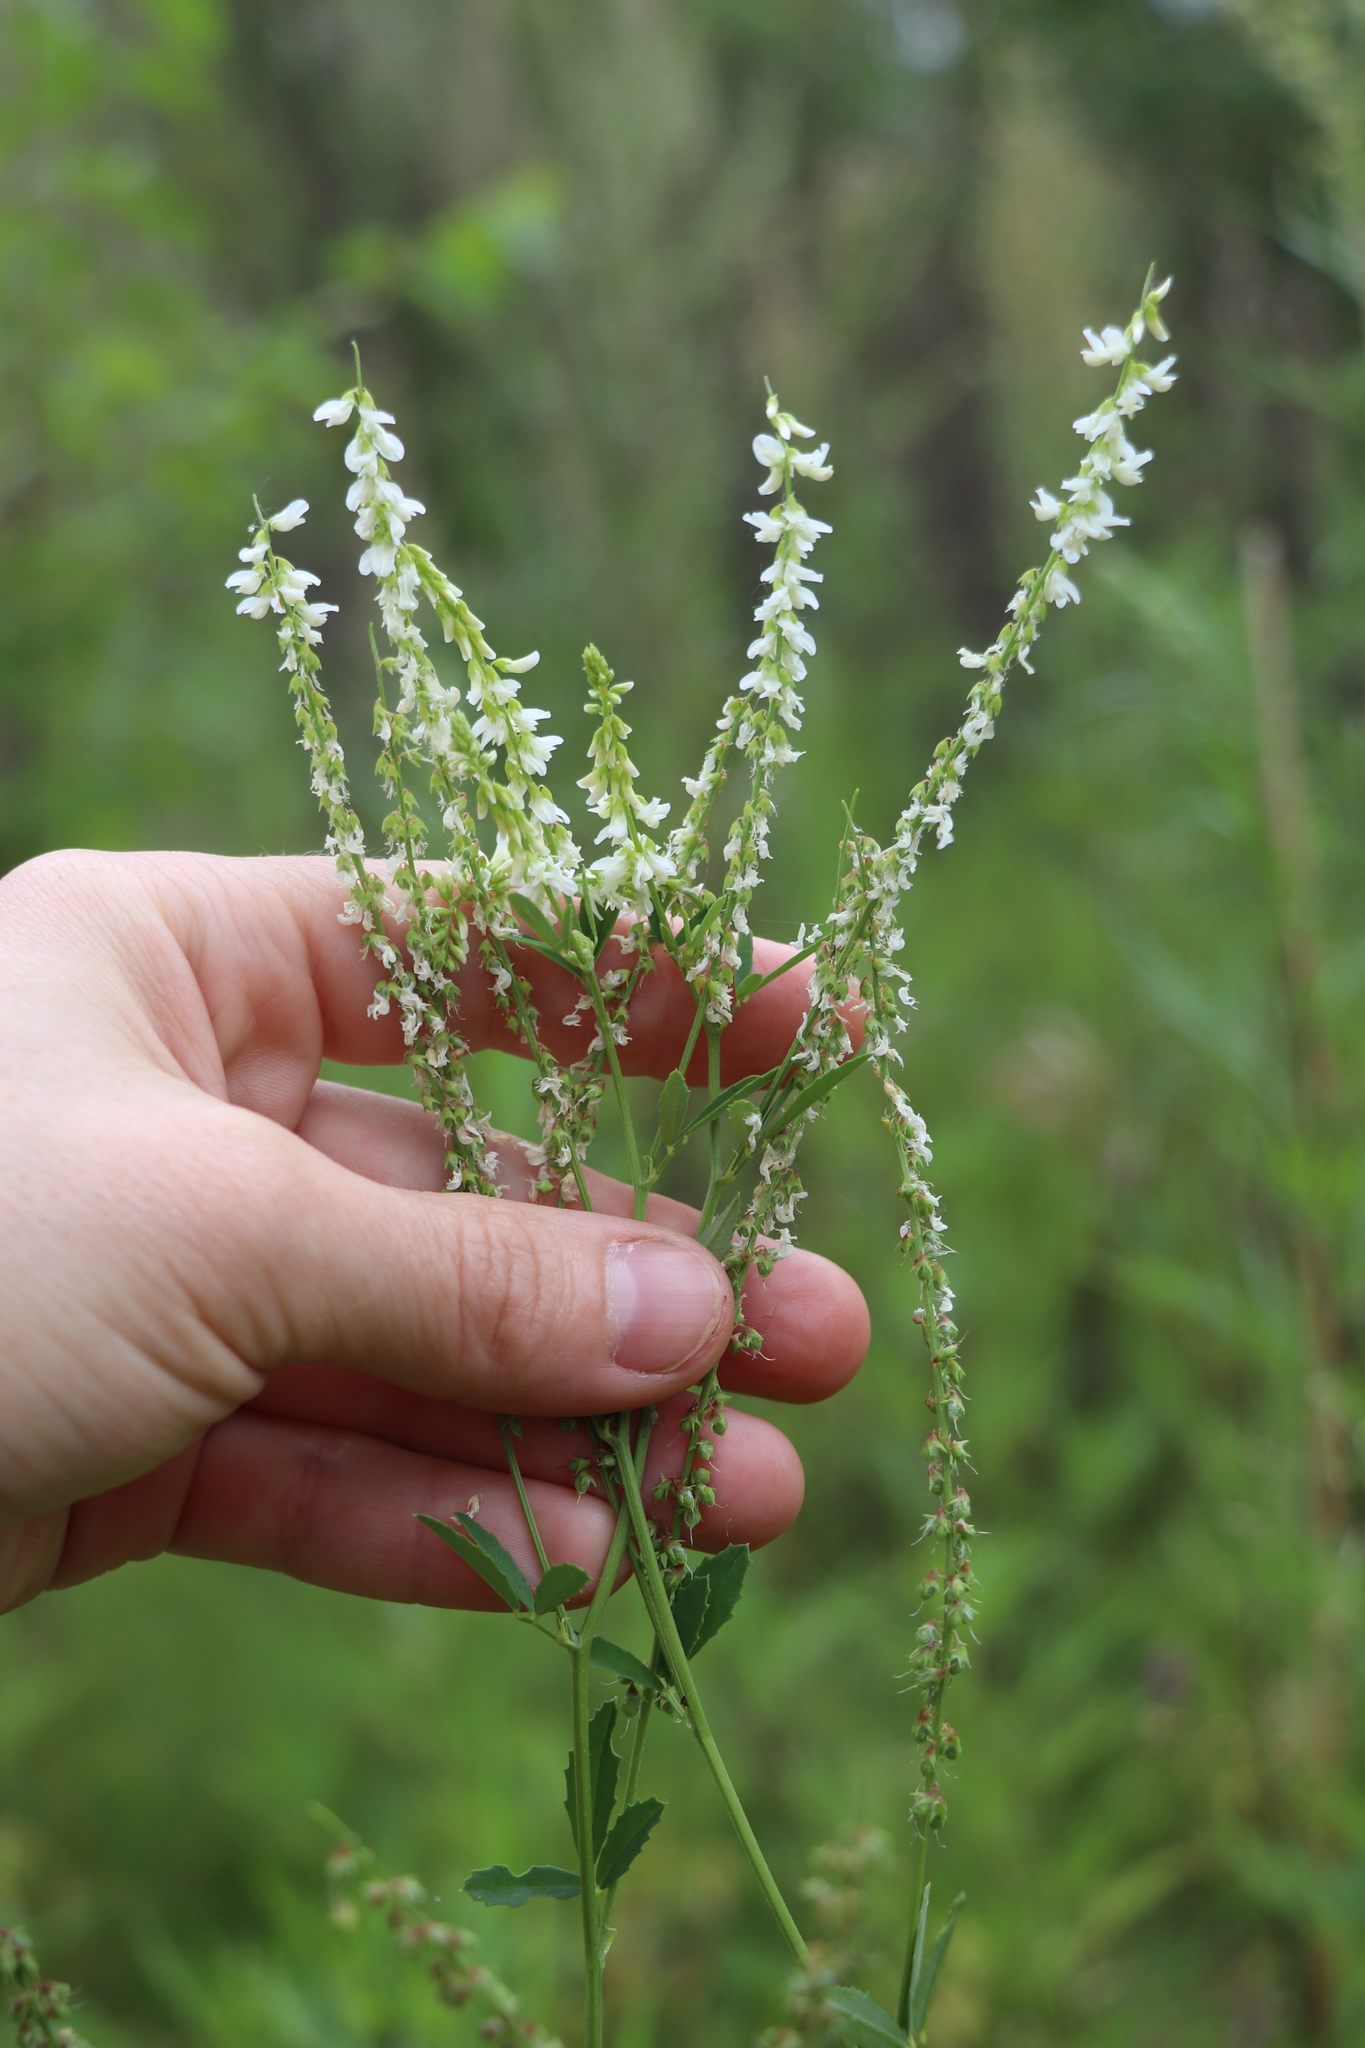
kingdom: Plantae
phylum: Tracheophyta
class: Magnoliopsida
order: Fabales
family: Fabaceae
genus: Melilotus
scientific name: Melilotus albus
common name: White melilot
